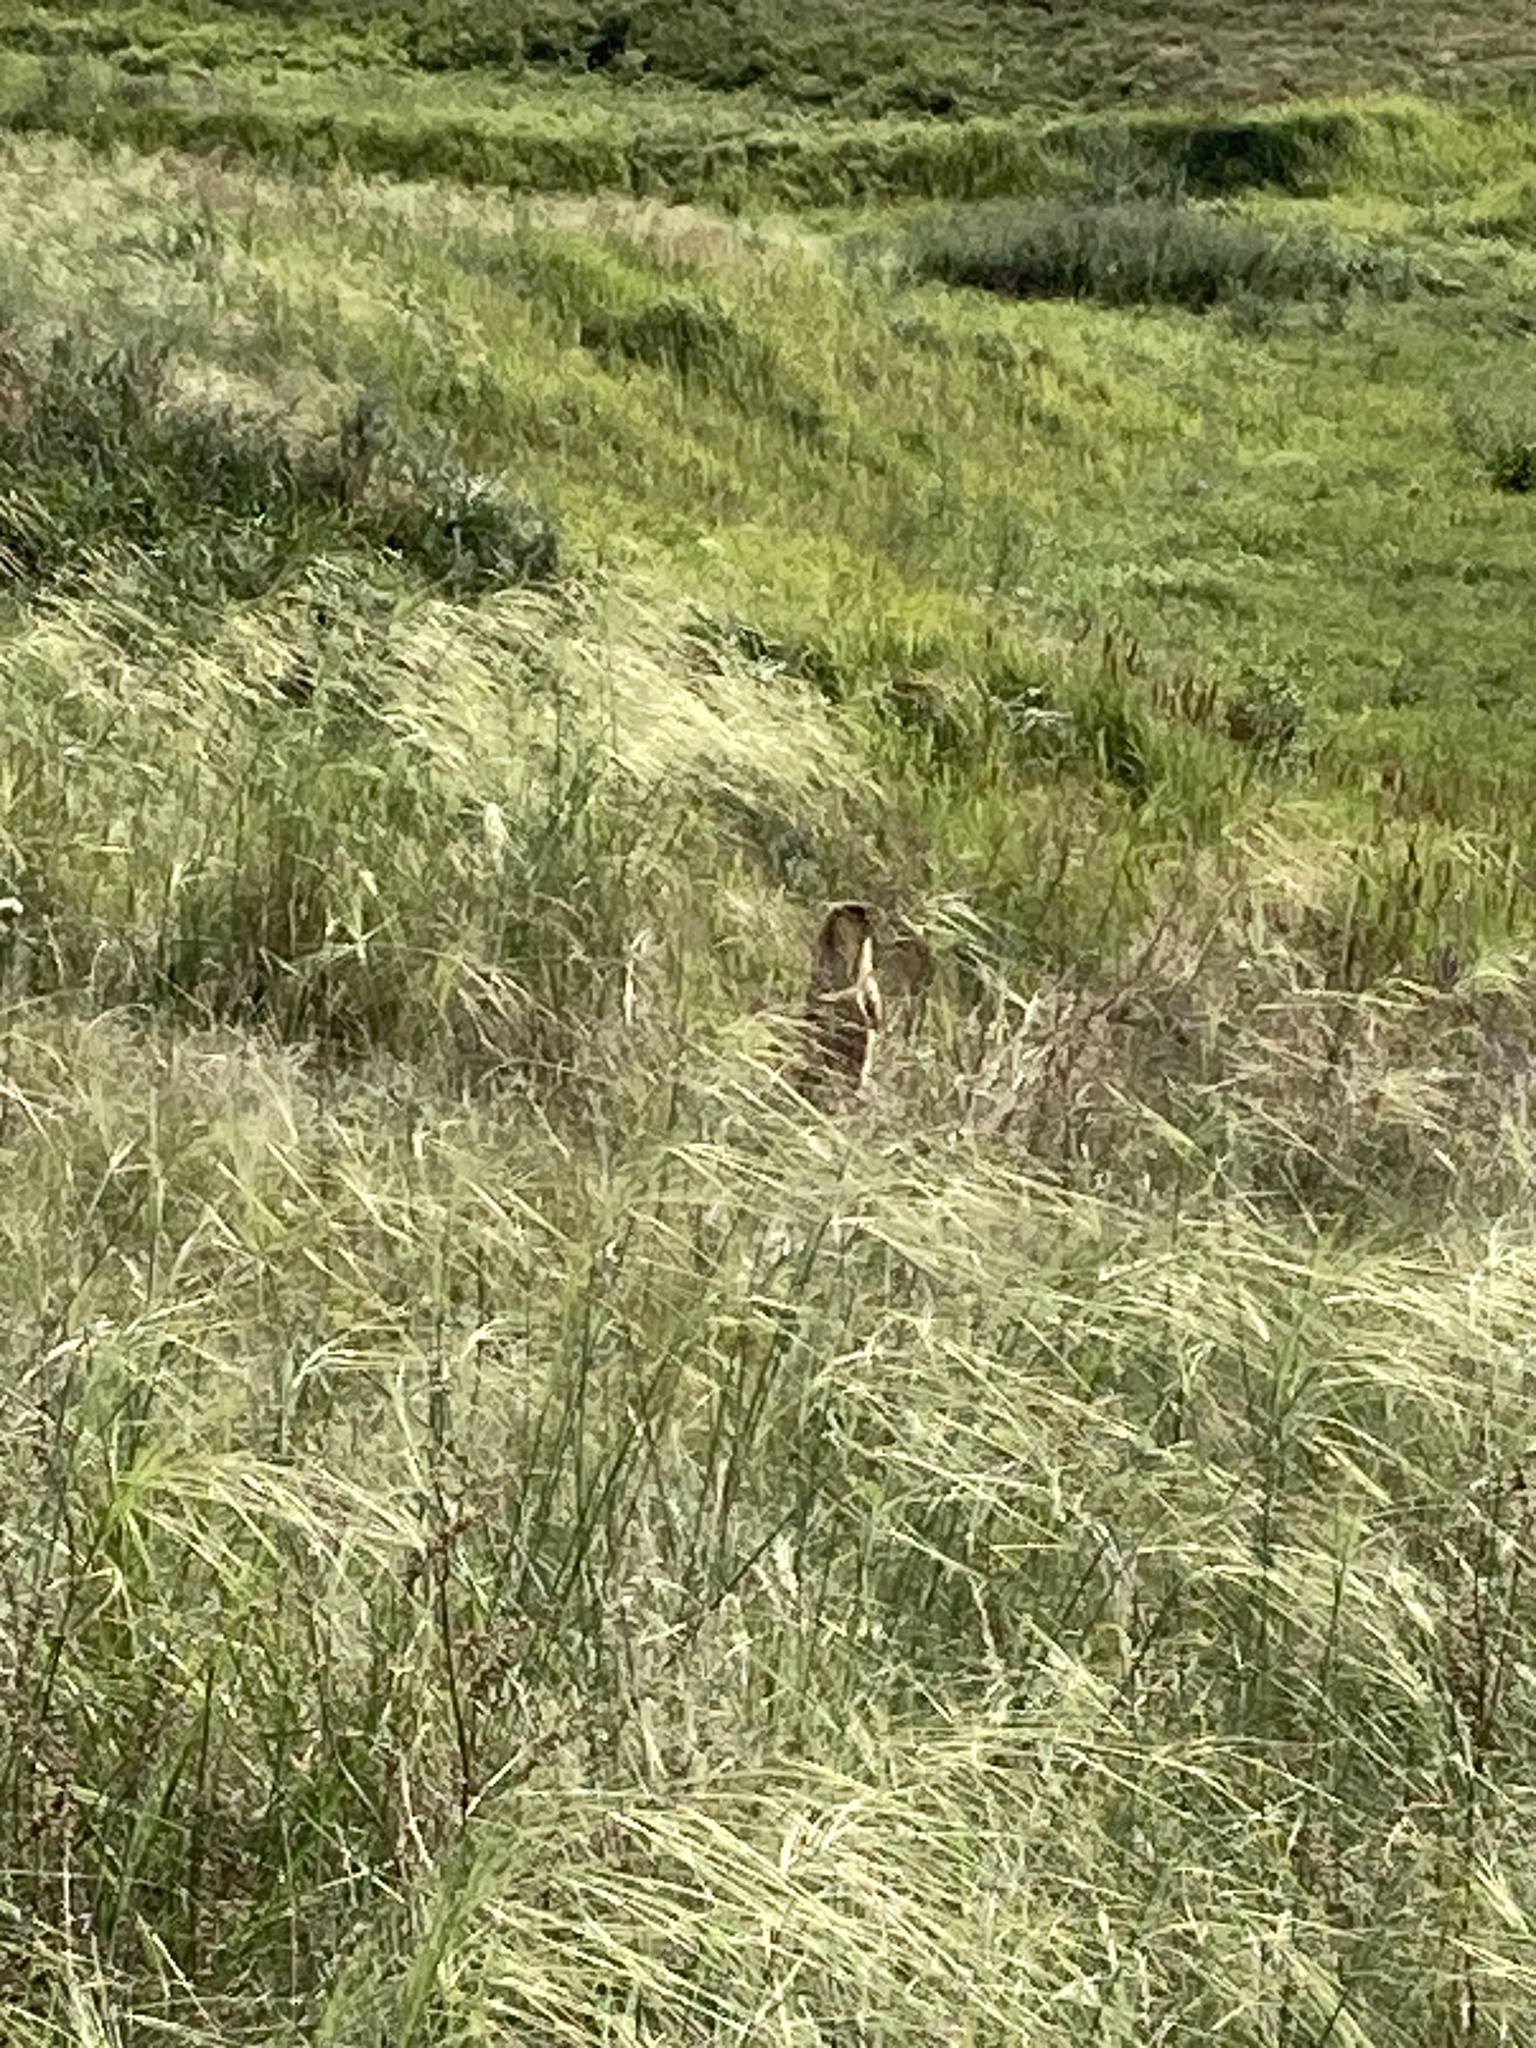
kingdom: Animalia
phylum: Chordata
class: Mammalia
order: Rodentia
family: Sciuridae
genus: Marmota
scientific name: Marmota bobak
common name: Bobak marmot
